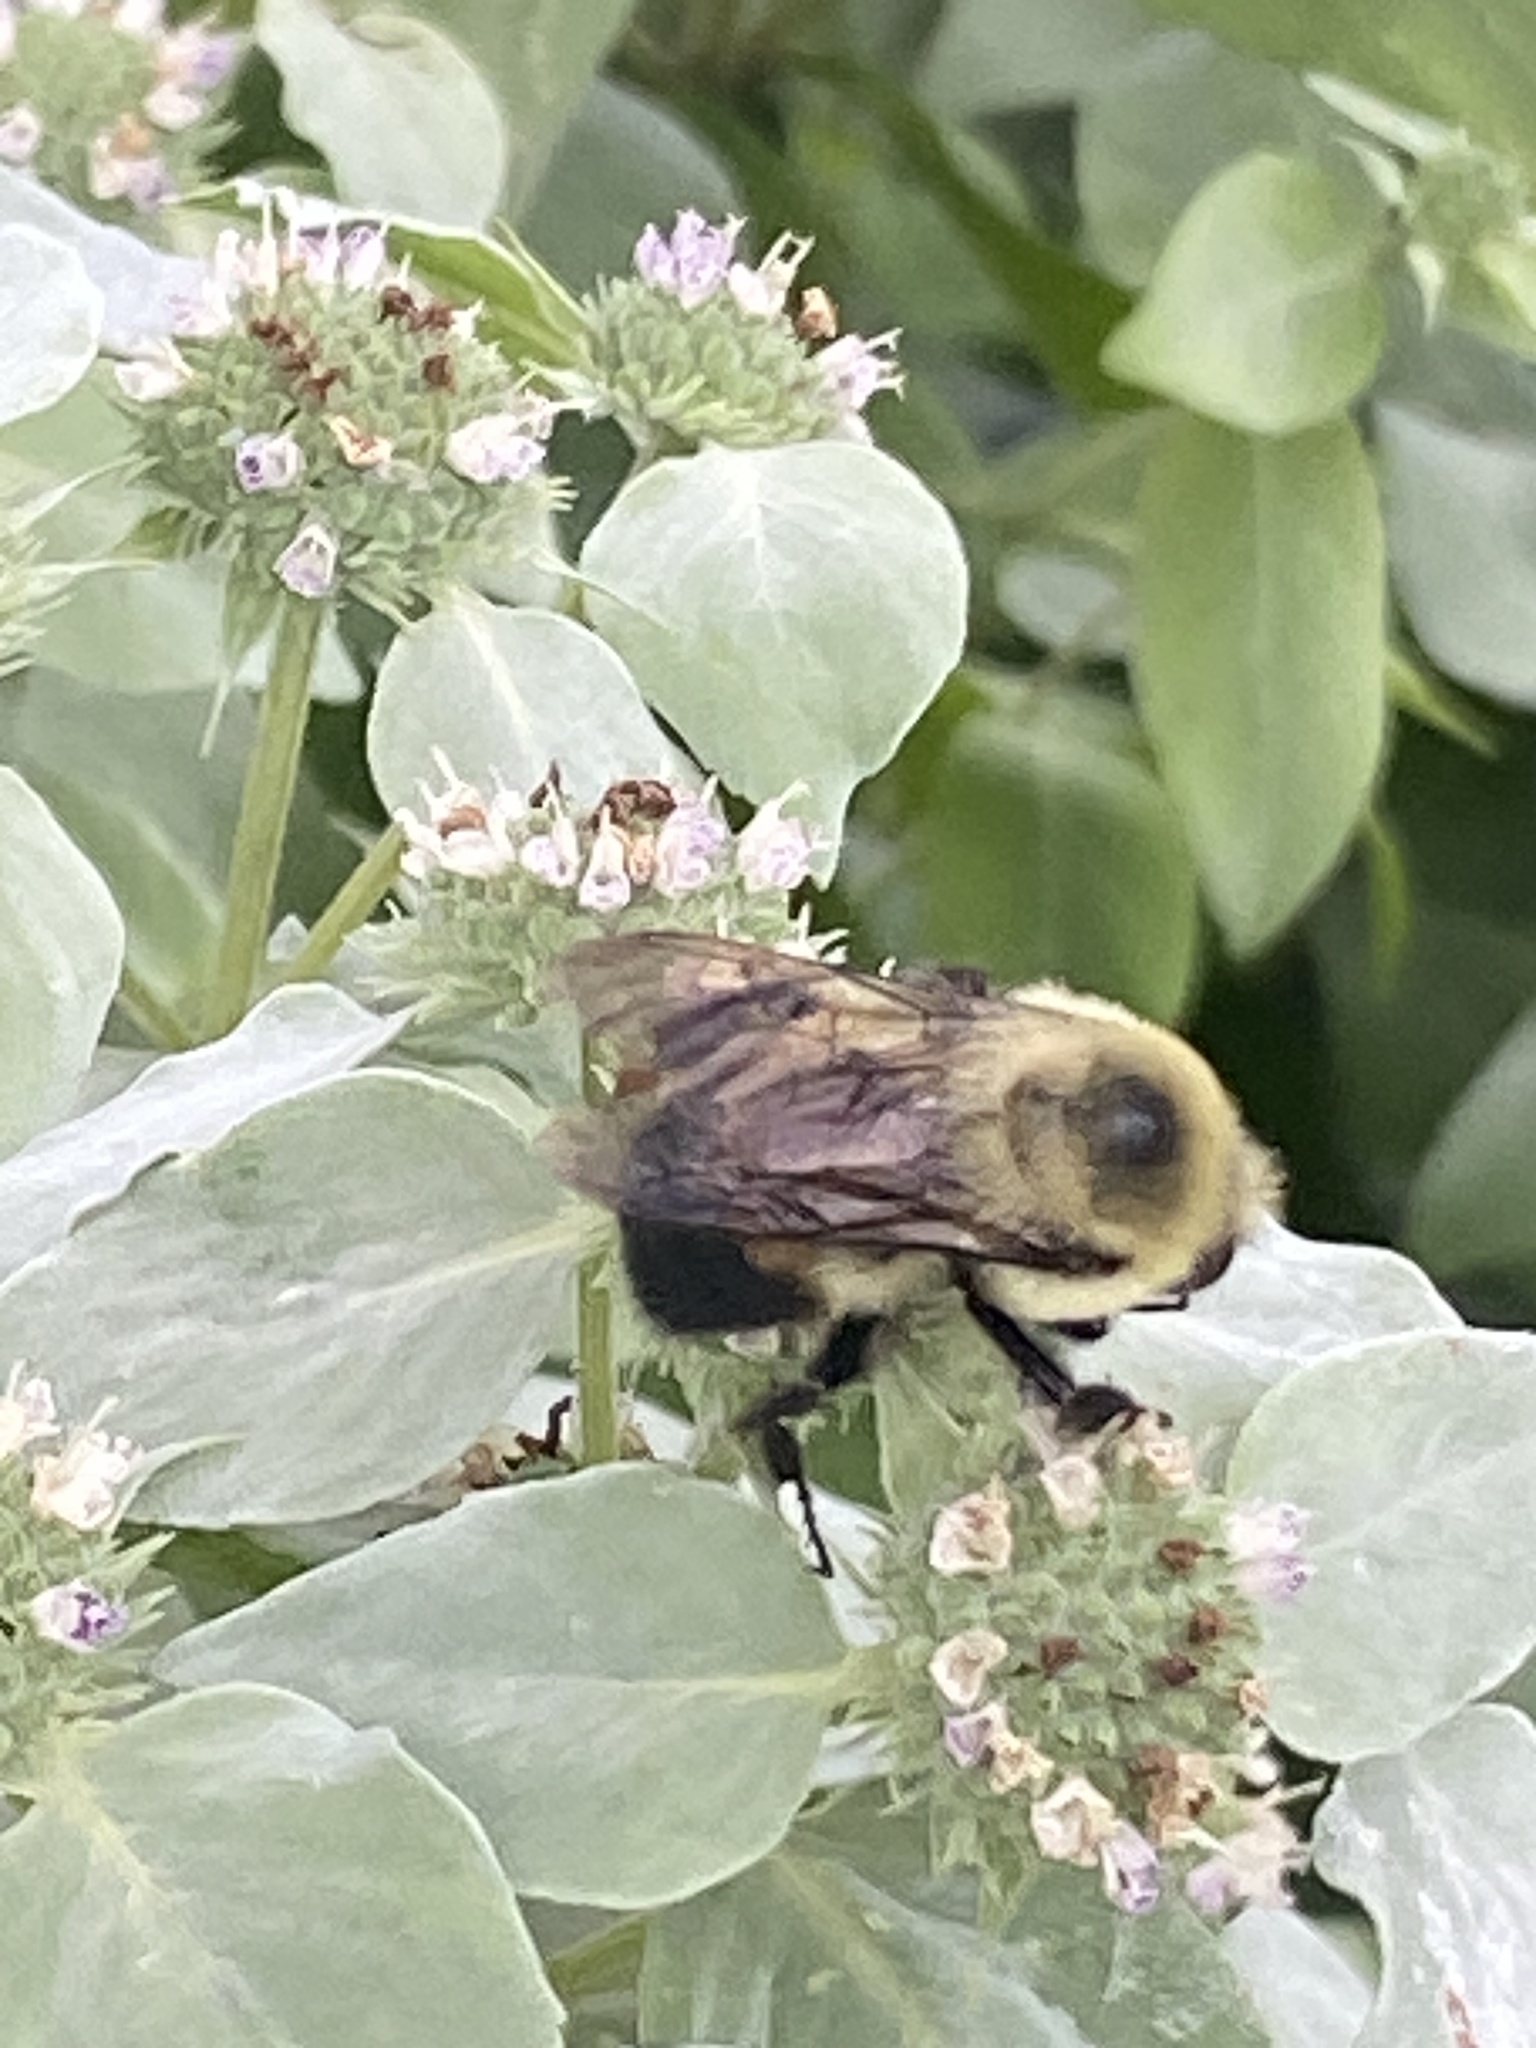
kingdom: Animalia
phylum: Arthropoda
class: Insecta
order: Hymenoptera
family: Apidae
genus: Bombus
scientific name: Bombus griseocollis
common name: Brown-belted bumble bee
